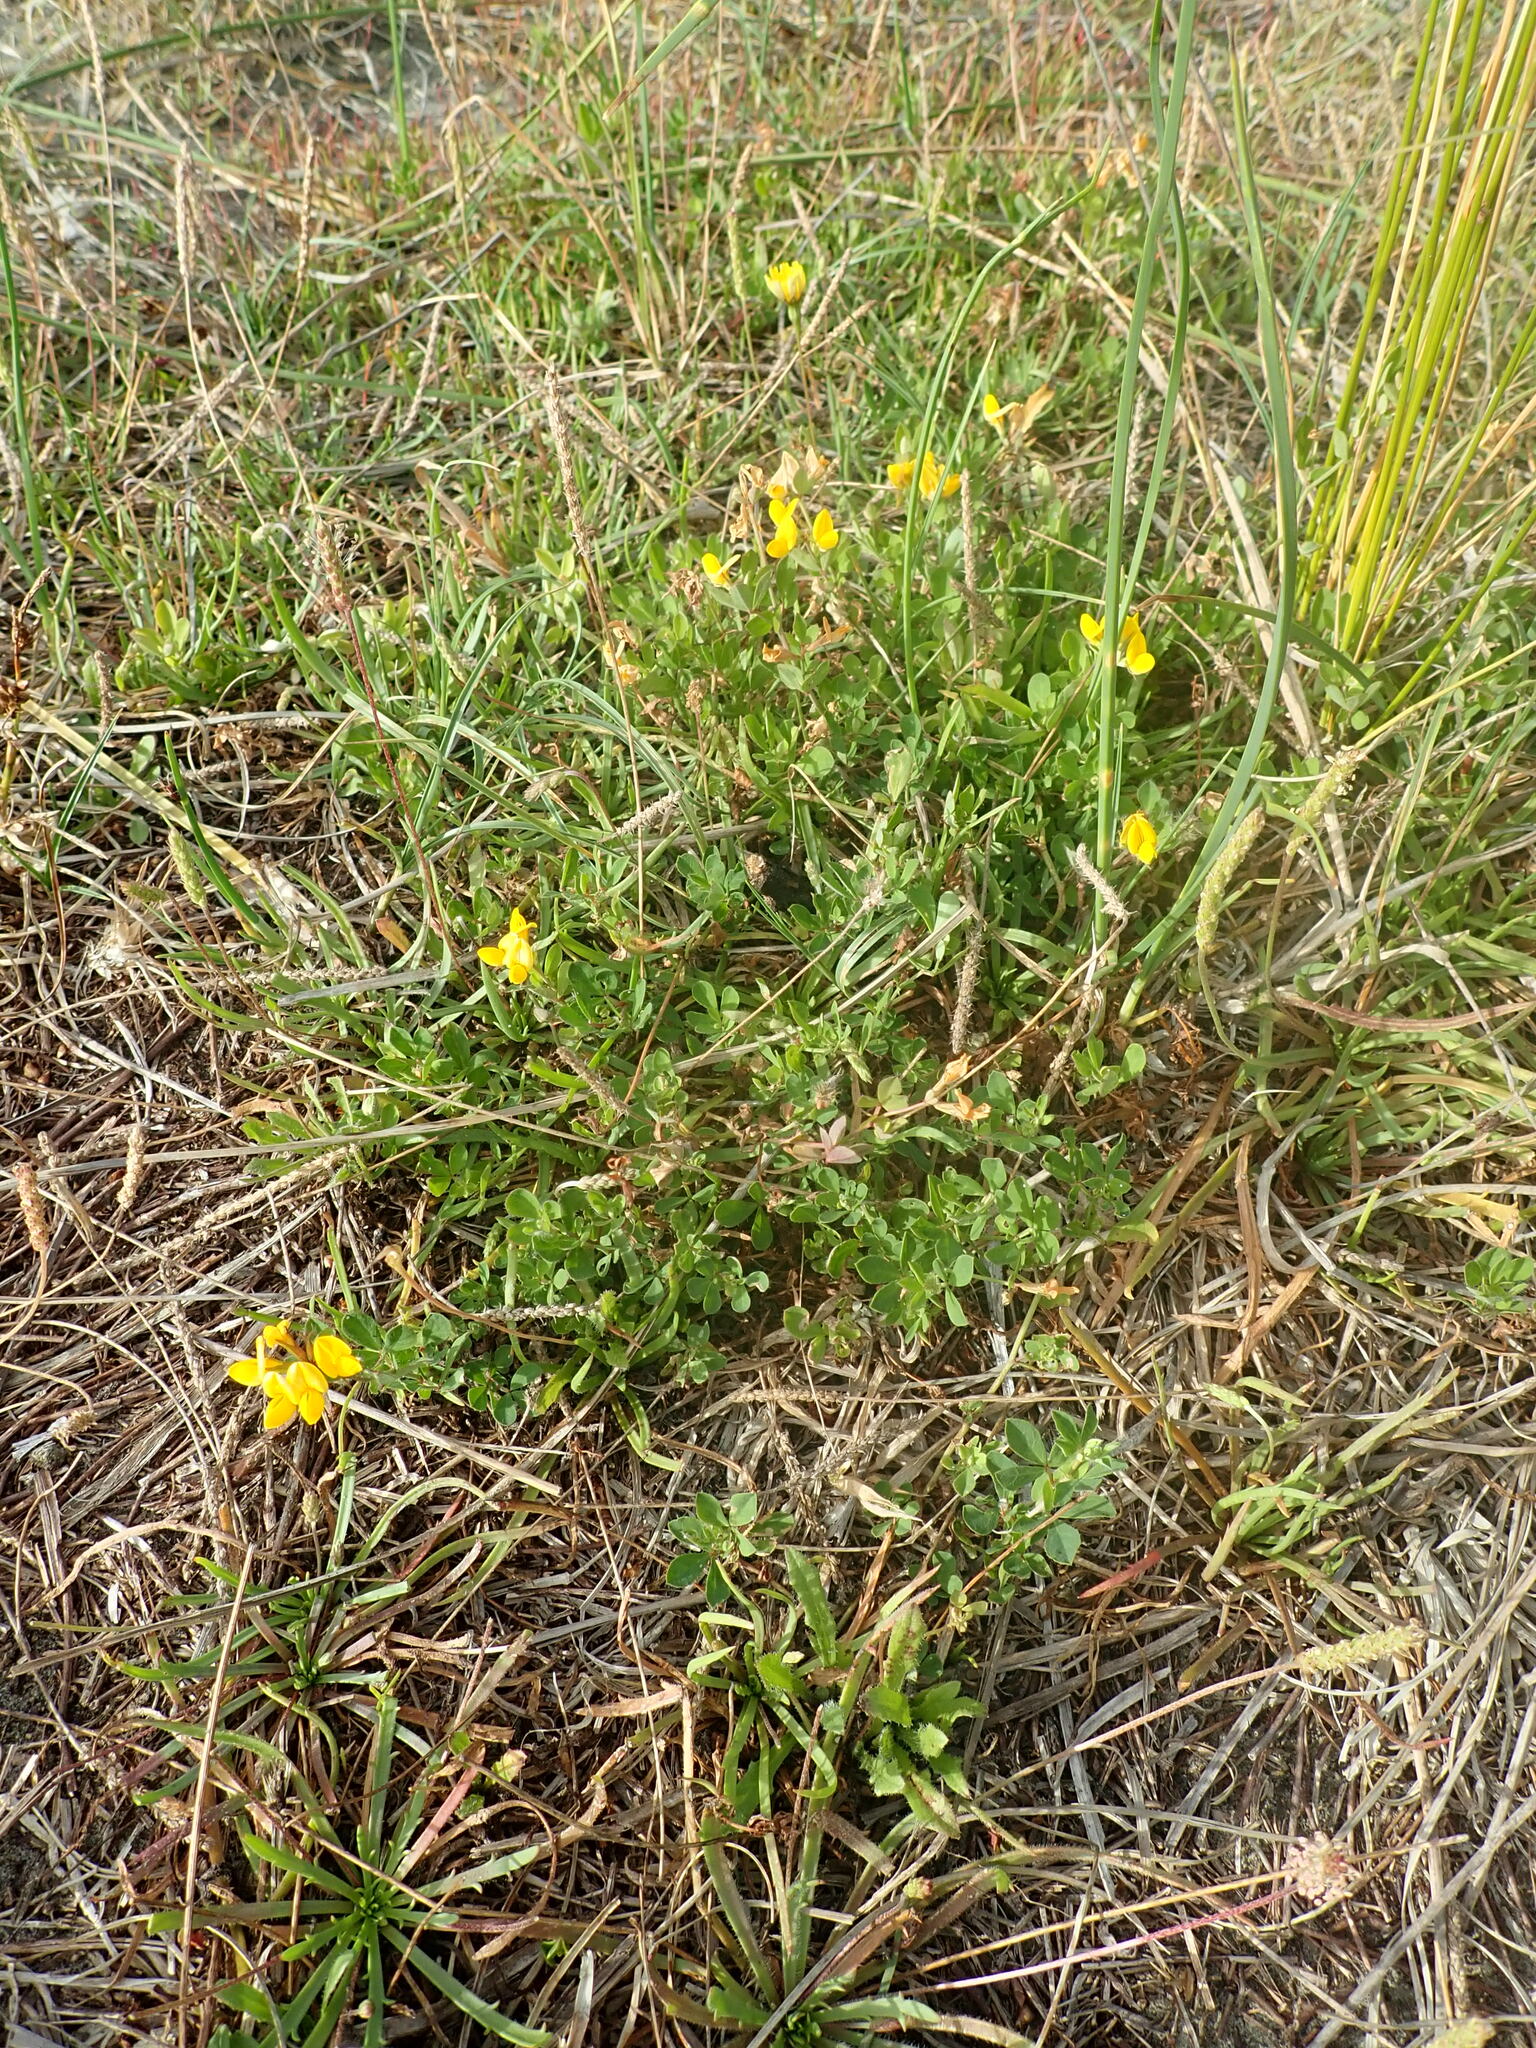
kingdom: Plantae
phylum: Tracheophyta
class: Magnoliopsida
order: Fabales
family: Fabaceae
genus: Lotus
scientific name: Lotus pedunculatus
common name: Greater birdsfoot-trefoil
